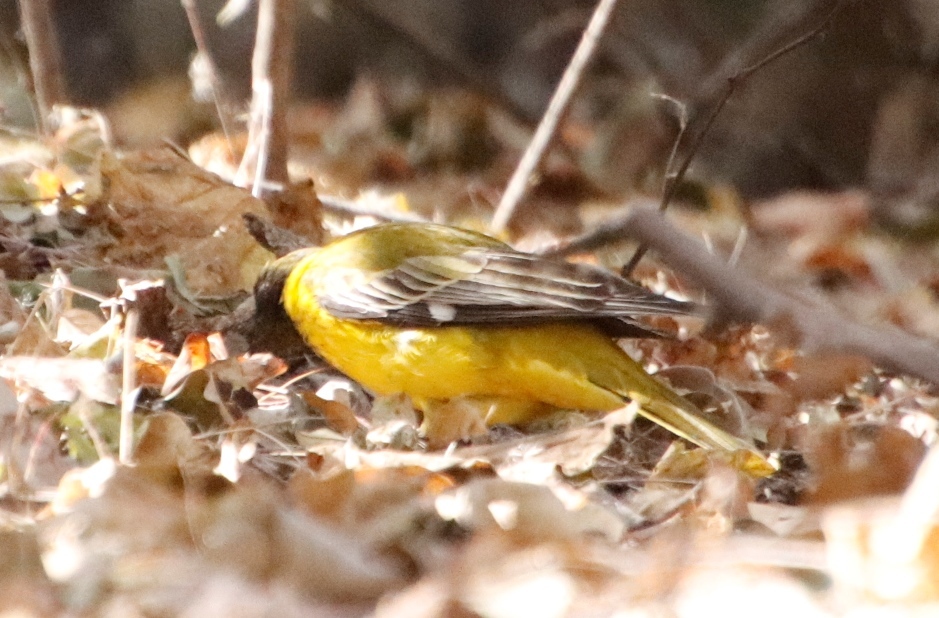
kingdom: Animalia
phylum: Chordata
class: Aves
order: Passeriformes
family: Oriolidae
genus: Oriolus
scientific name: Oriolus larvatus
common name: Black-headed oriole
